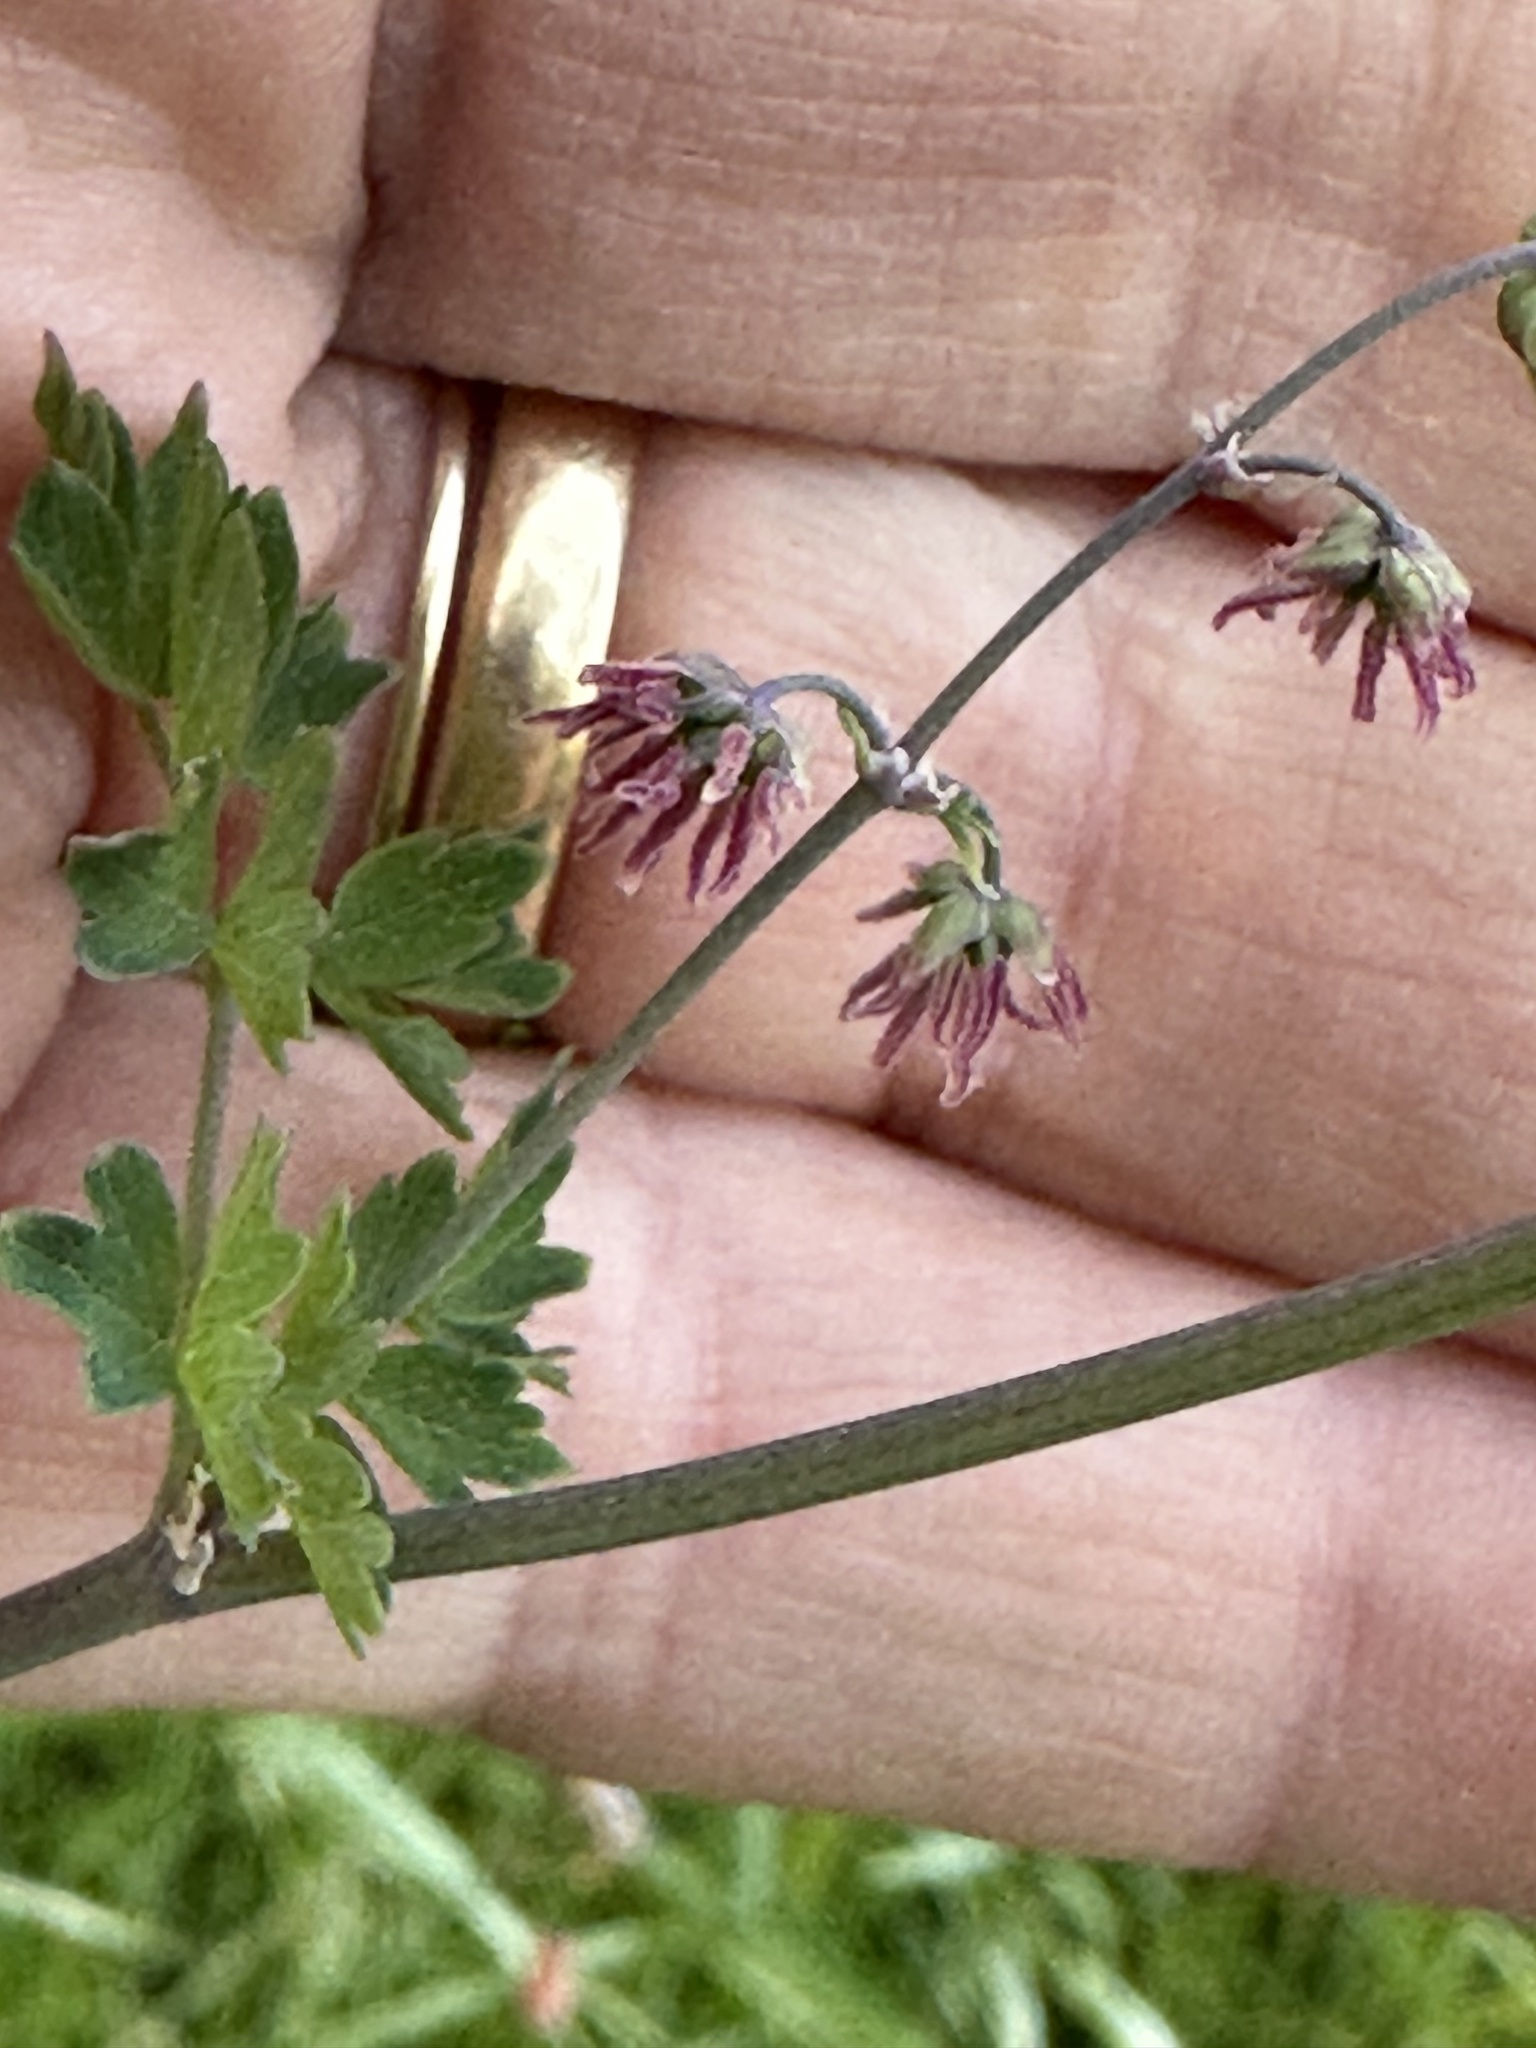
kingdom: Plantae
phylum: Tracheophyta
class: Magnoliopsida
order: Ranunculales
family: Ranunculaceae
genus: Thalictrum
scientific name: Thalictrum fendleri
